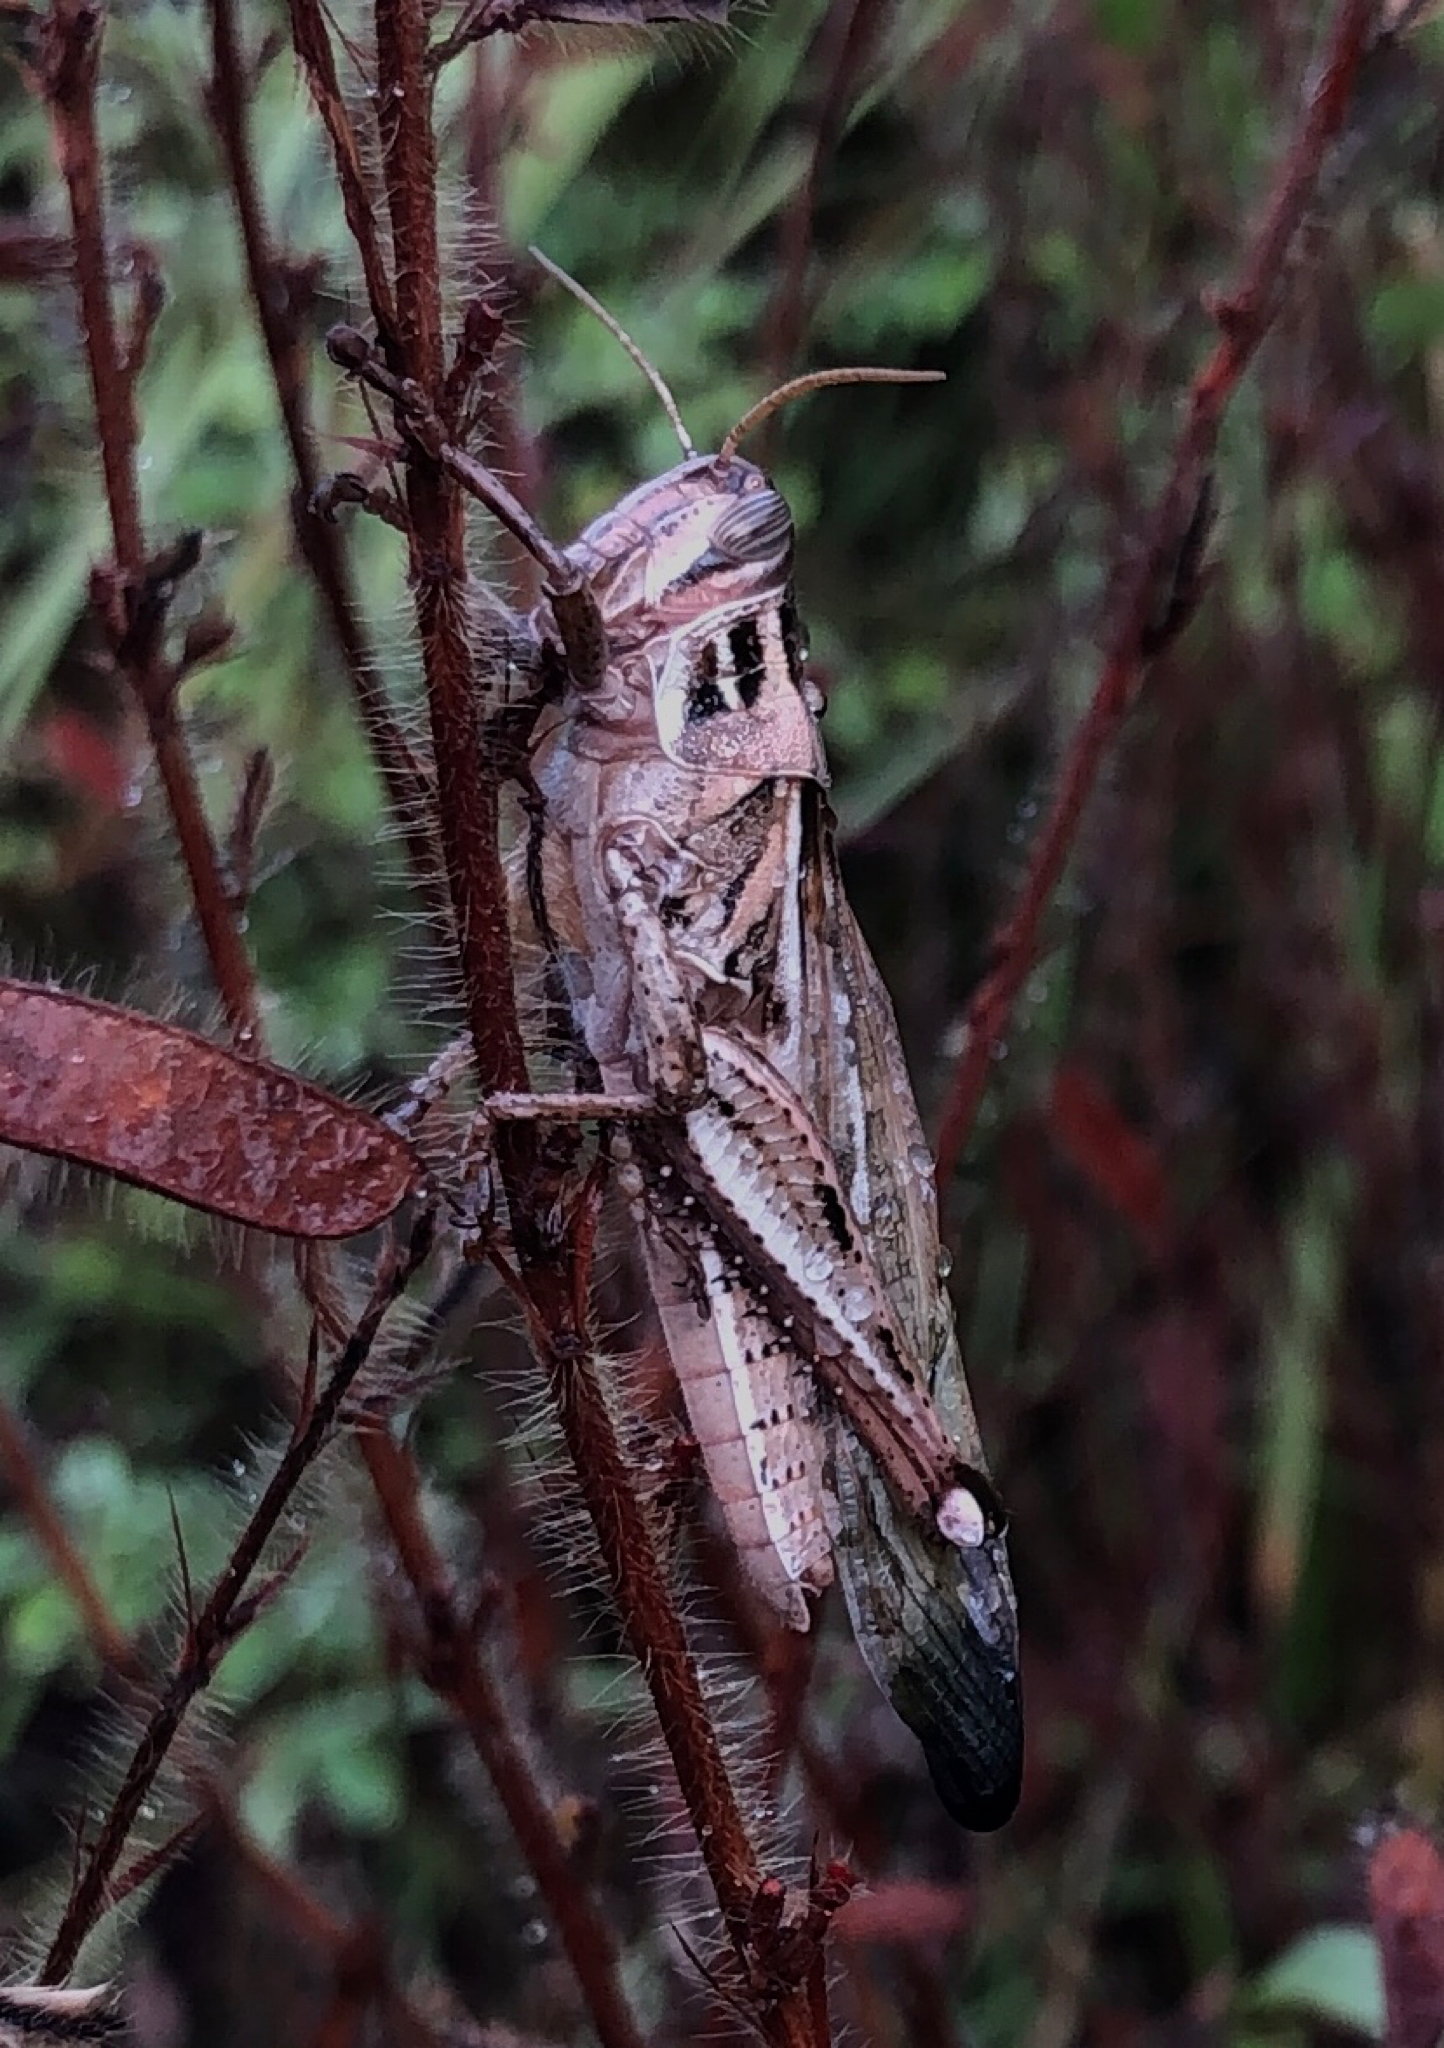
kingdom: Animalia
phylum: Arthropoda
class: Insecta
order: Orthoptera
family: Acrididae
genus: Schistocerca
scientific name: Schistocerca americana
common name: American bird locust
